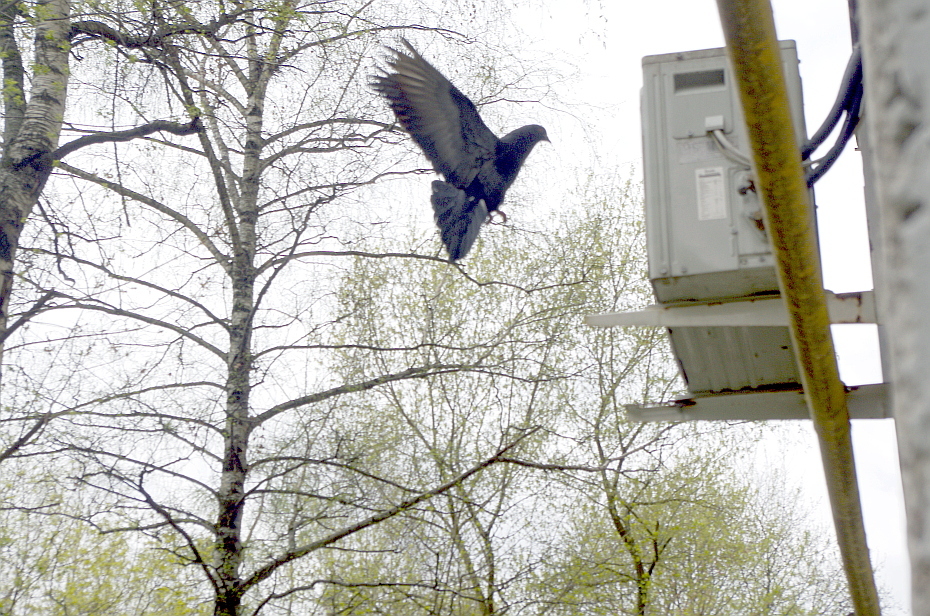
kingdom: Animalia
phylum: Chordata
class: Aves
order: Columbiformes
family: Columbidae
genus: Columba
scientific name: Columba livia
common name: Rock pigeon
